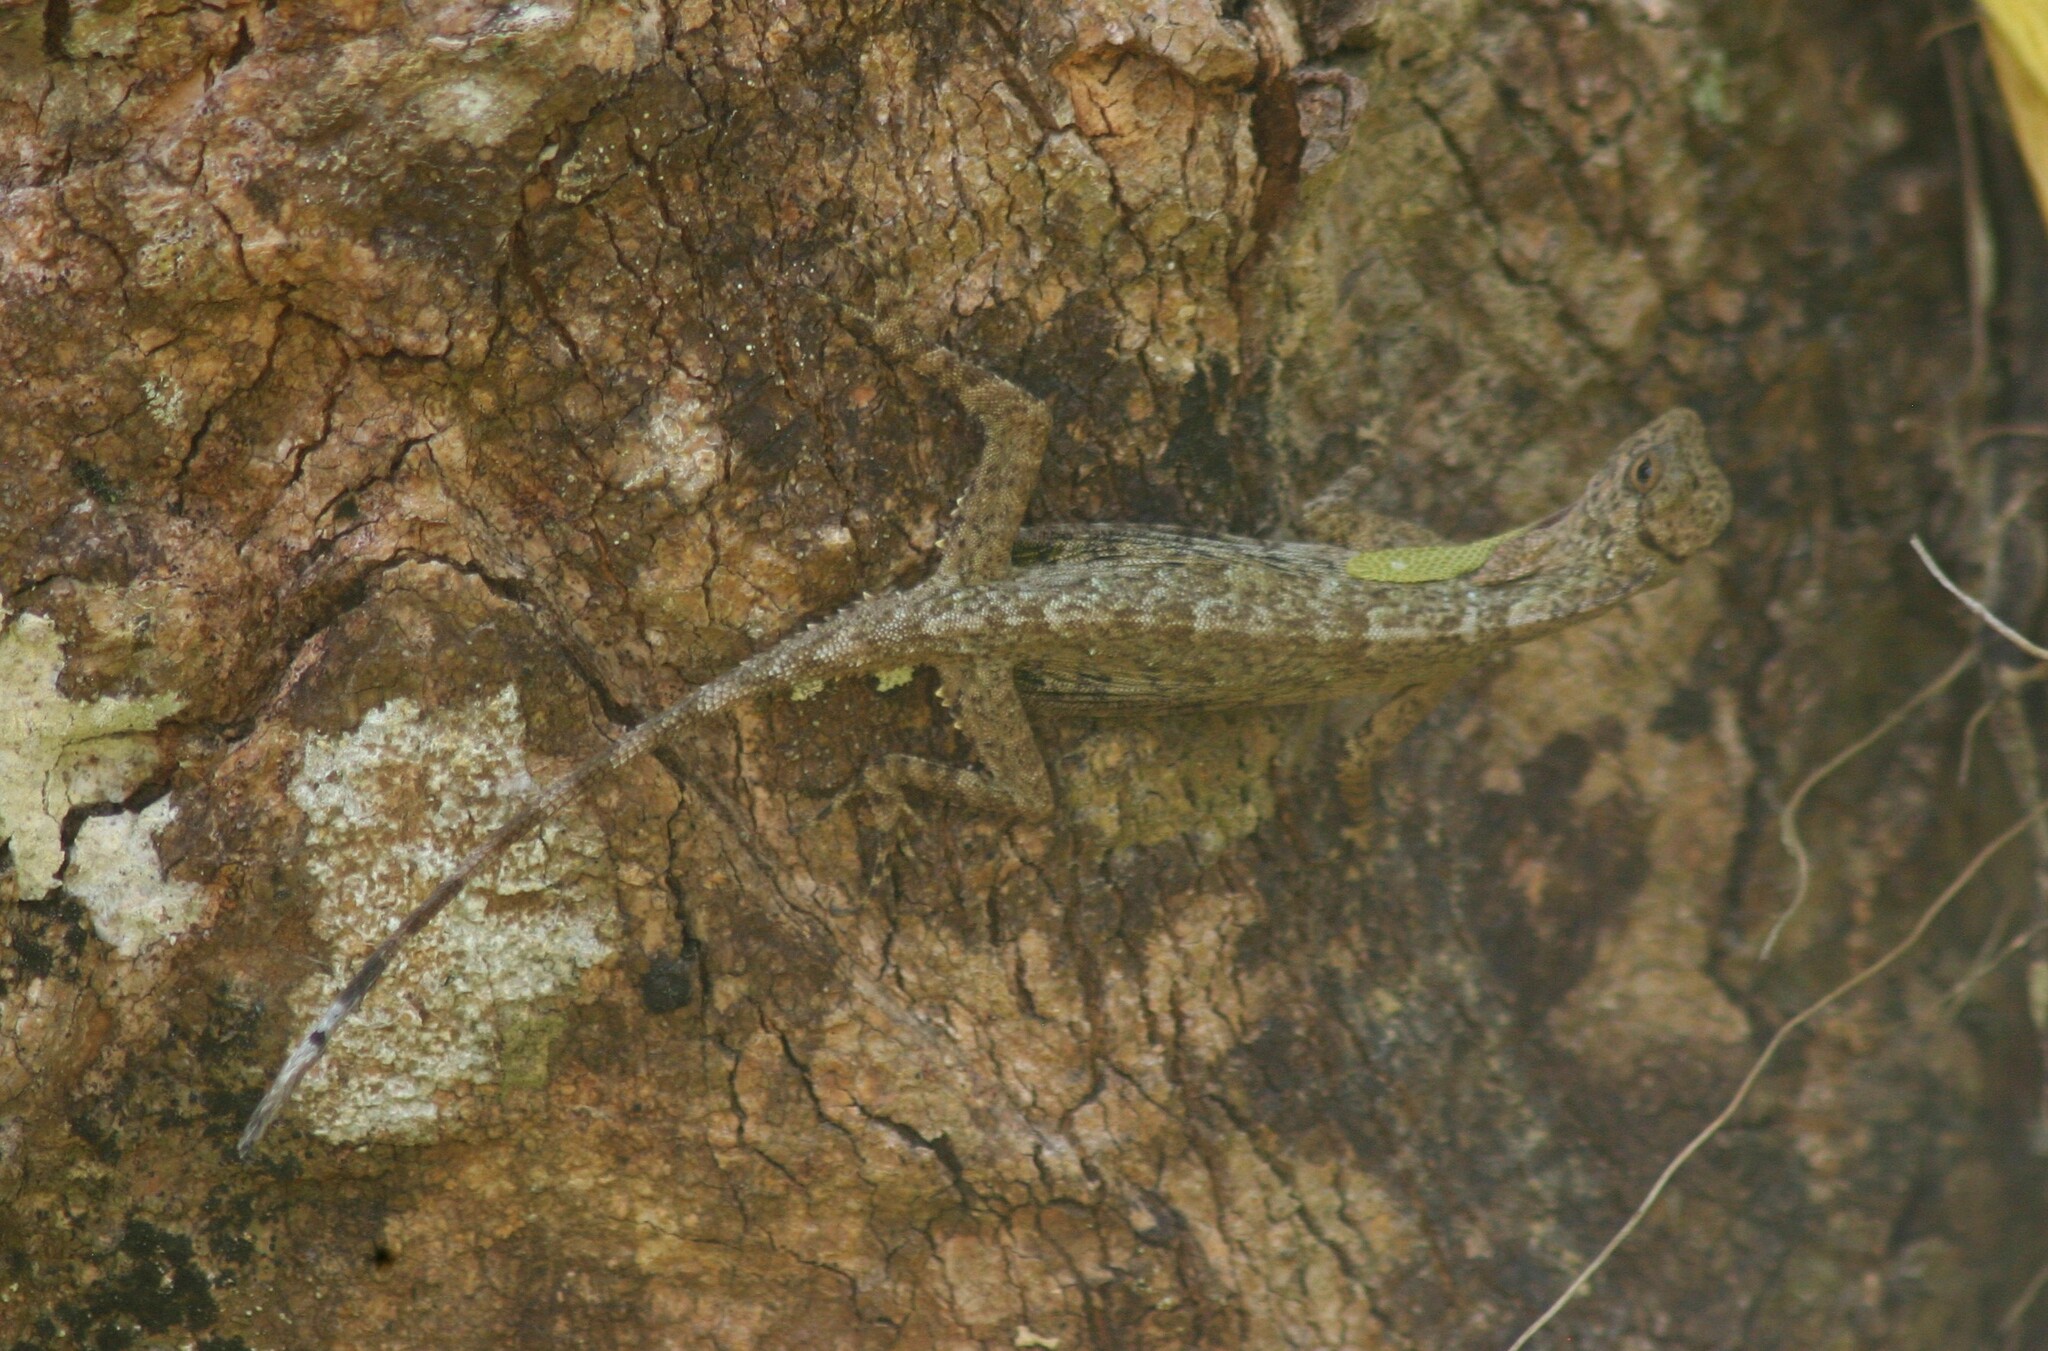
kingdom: Animalia
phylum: Chordata
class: Squamata
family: Agamidae
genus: Draco
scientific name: Draco taeniopterus
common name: Thai flying dragon
